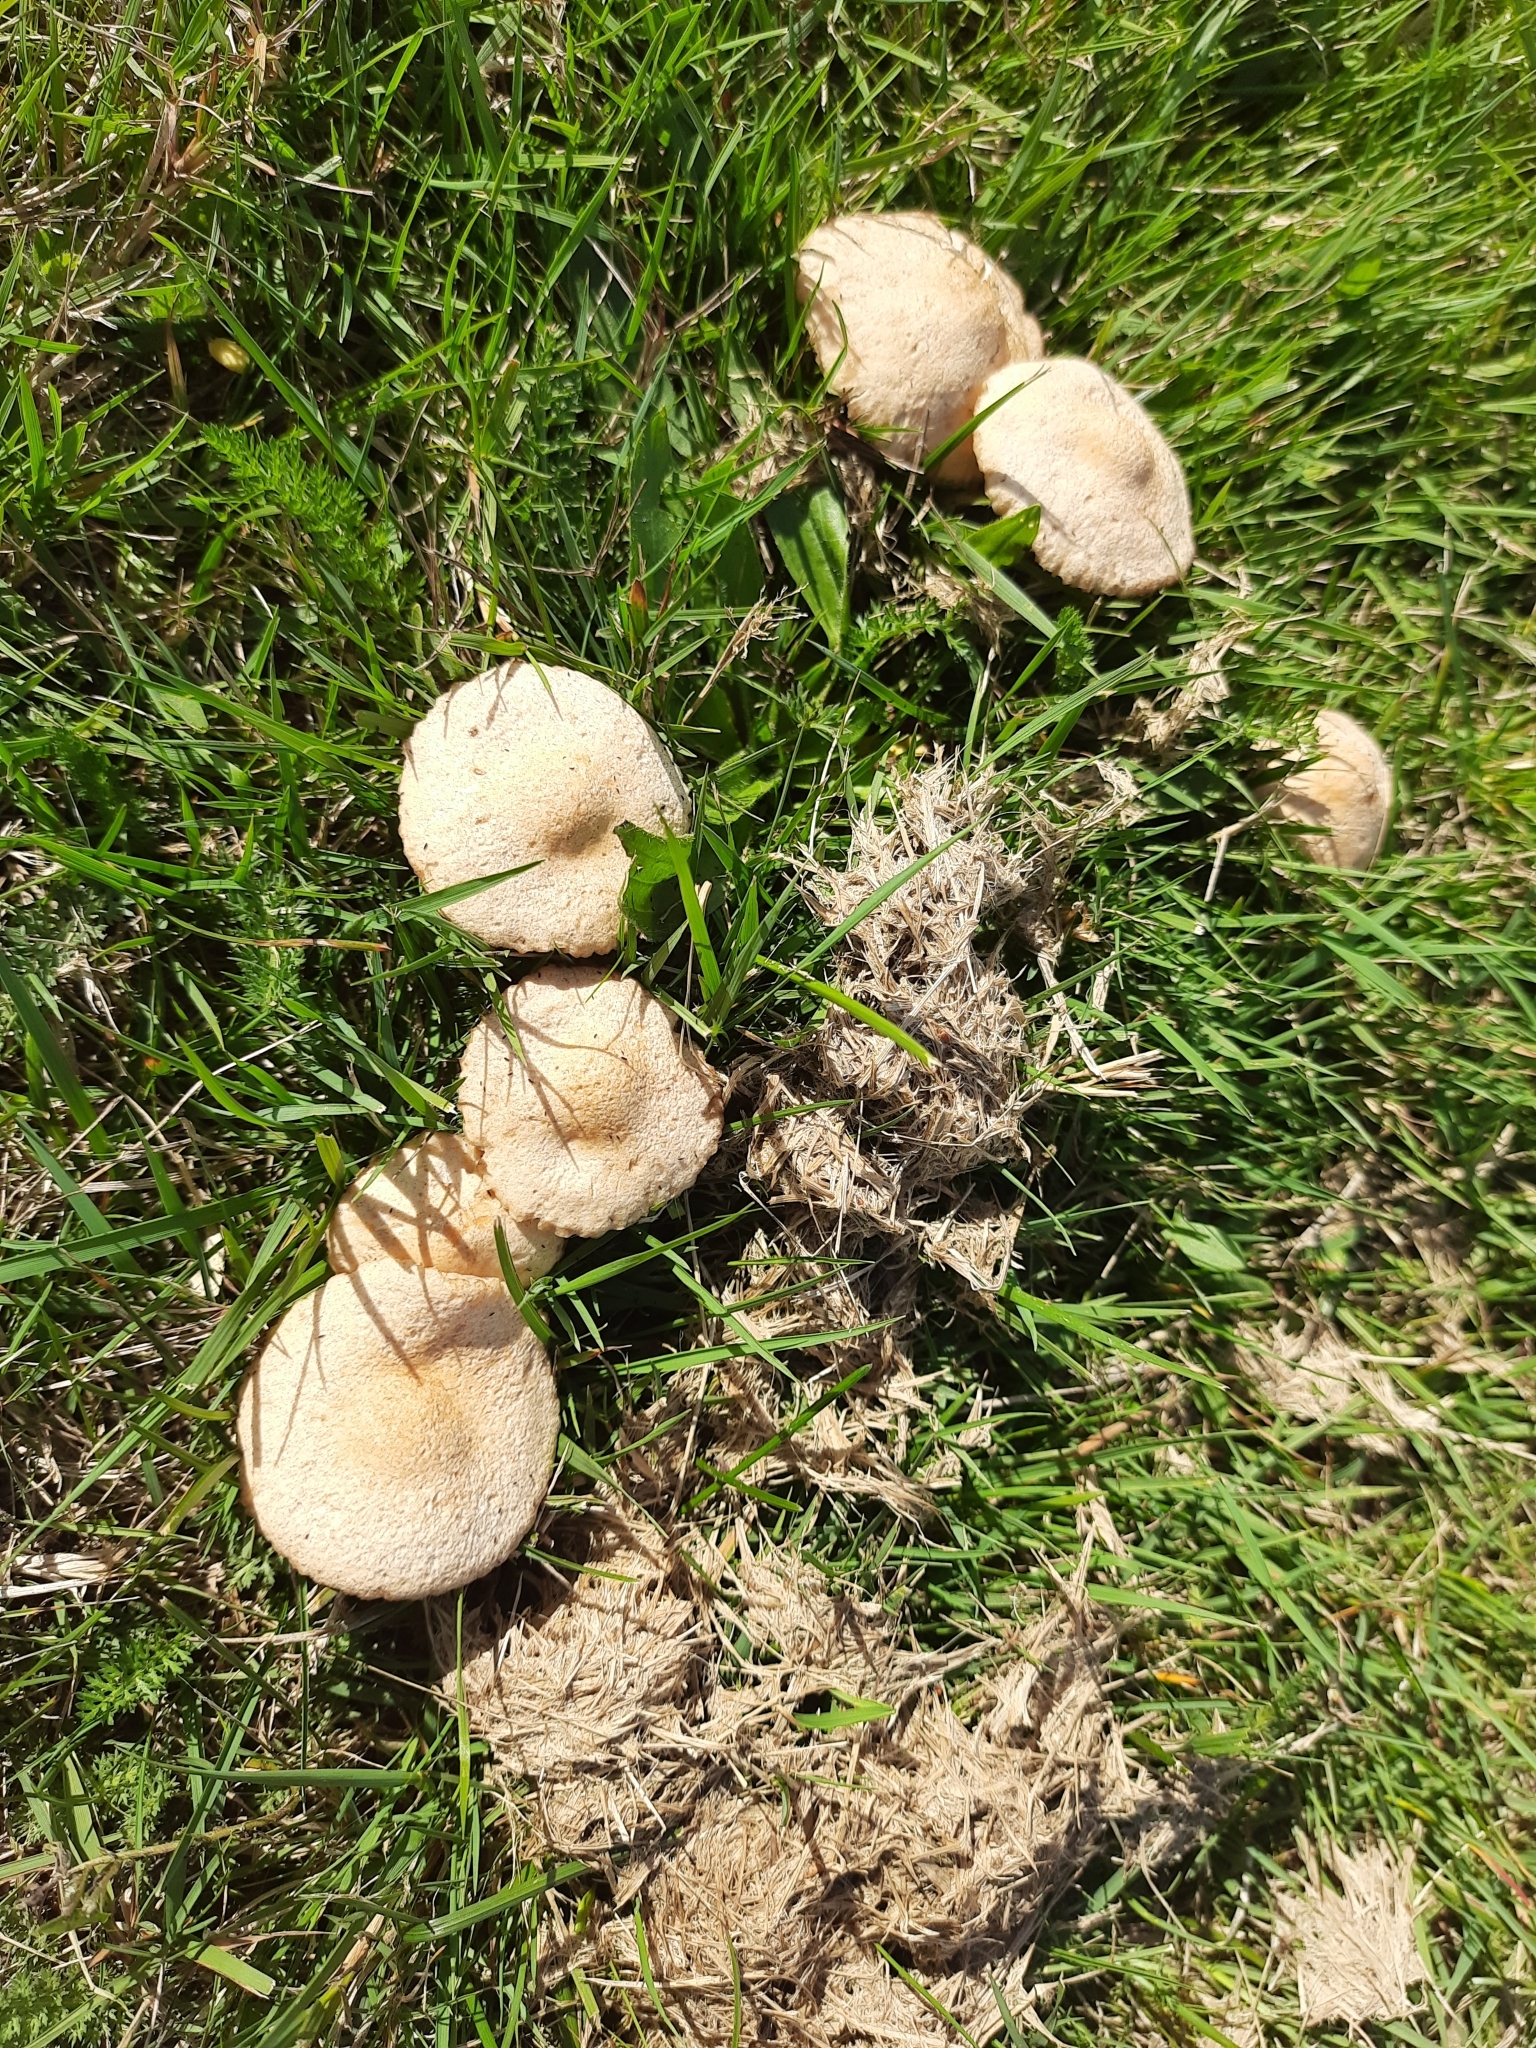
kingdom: Fungi
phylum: Basidiomycota
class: Agaricomycetes
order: Agaricales
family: Marasmiaceae
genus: Marasmius
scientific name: Marasmius oreades
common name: Fairy ring champignon
